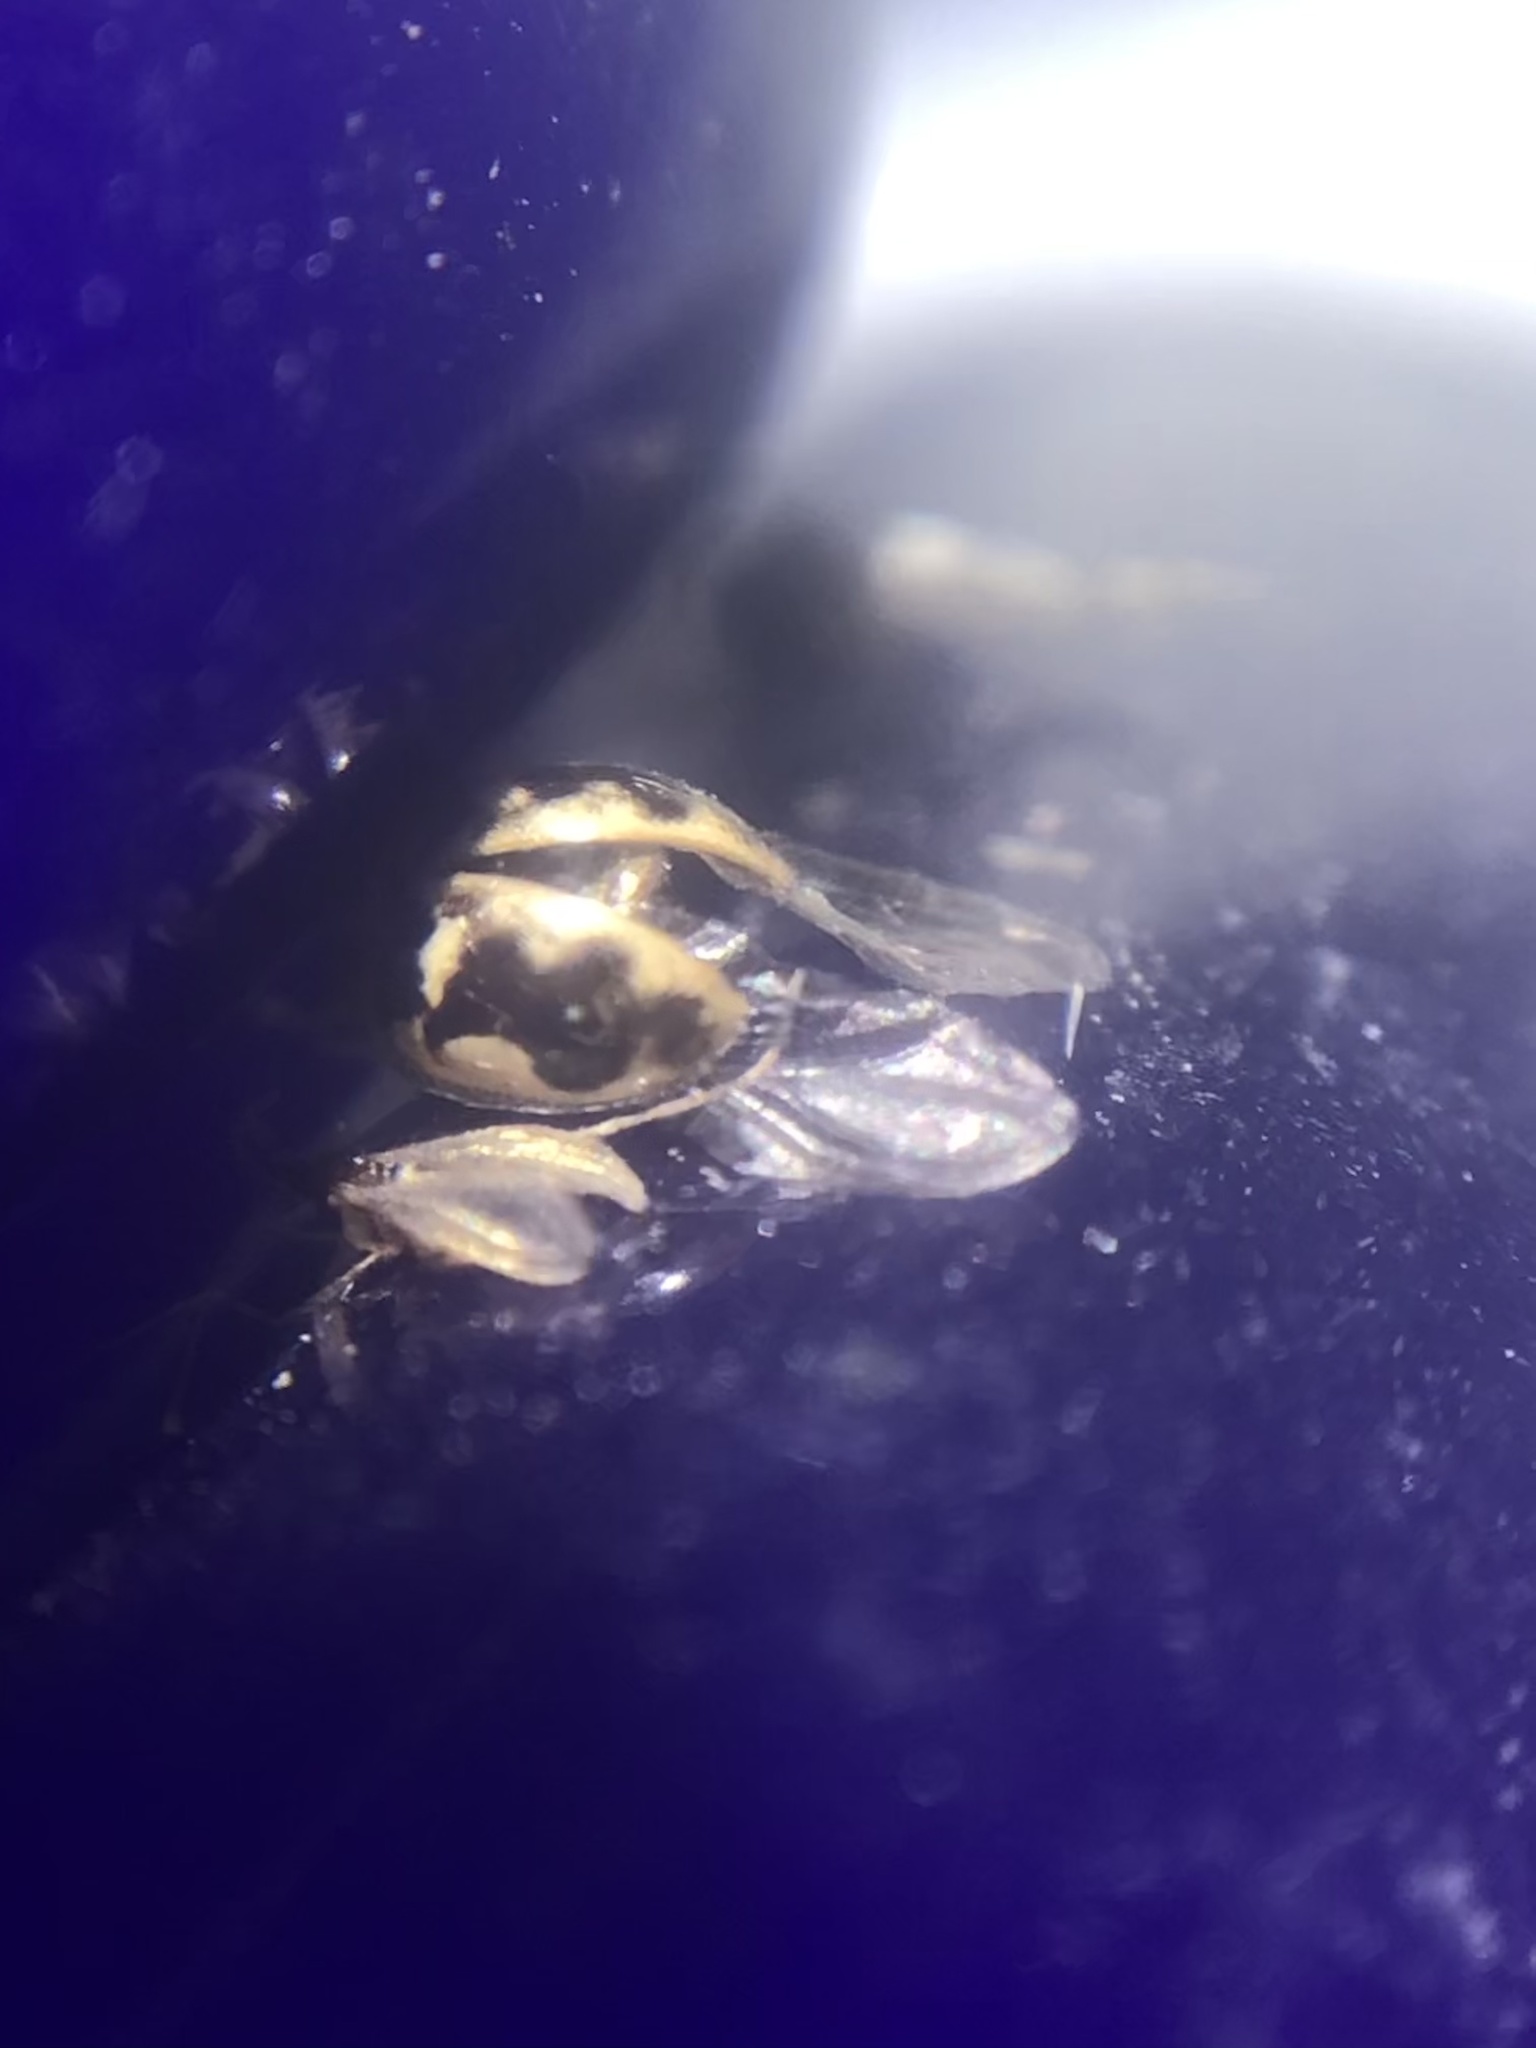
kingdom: Animalia
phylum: Arthropoda
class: Insecta
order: Coleoptera
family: Coccinellidae
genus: Psyllobora
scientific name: Psyllobora renifer
